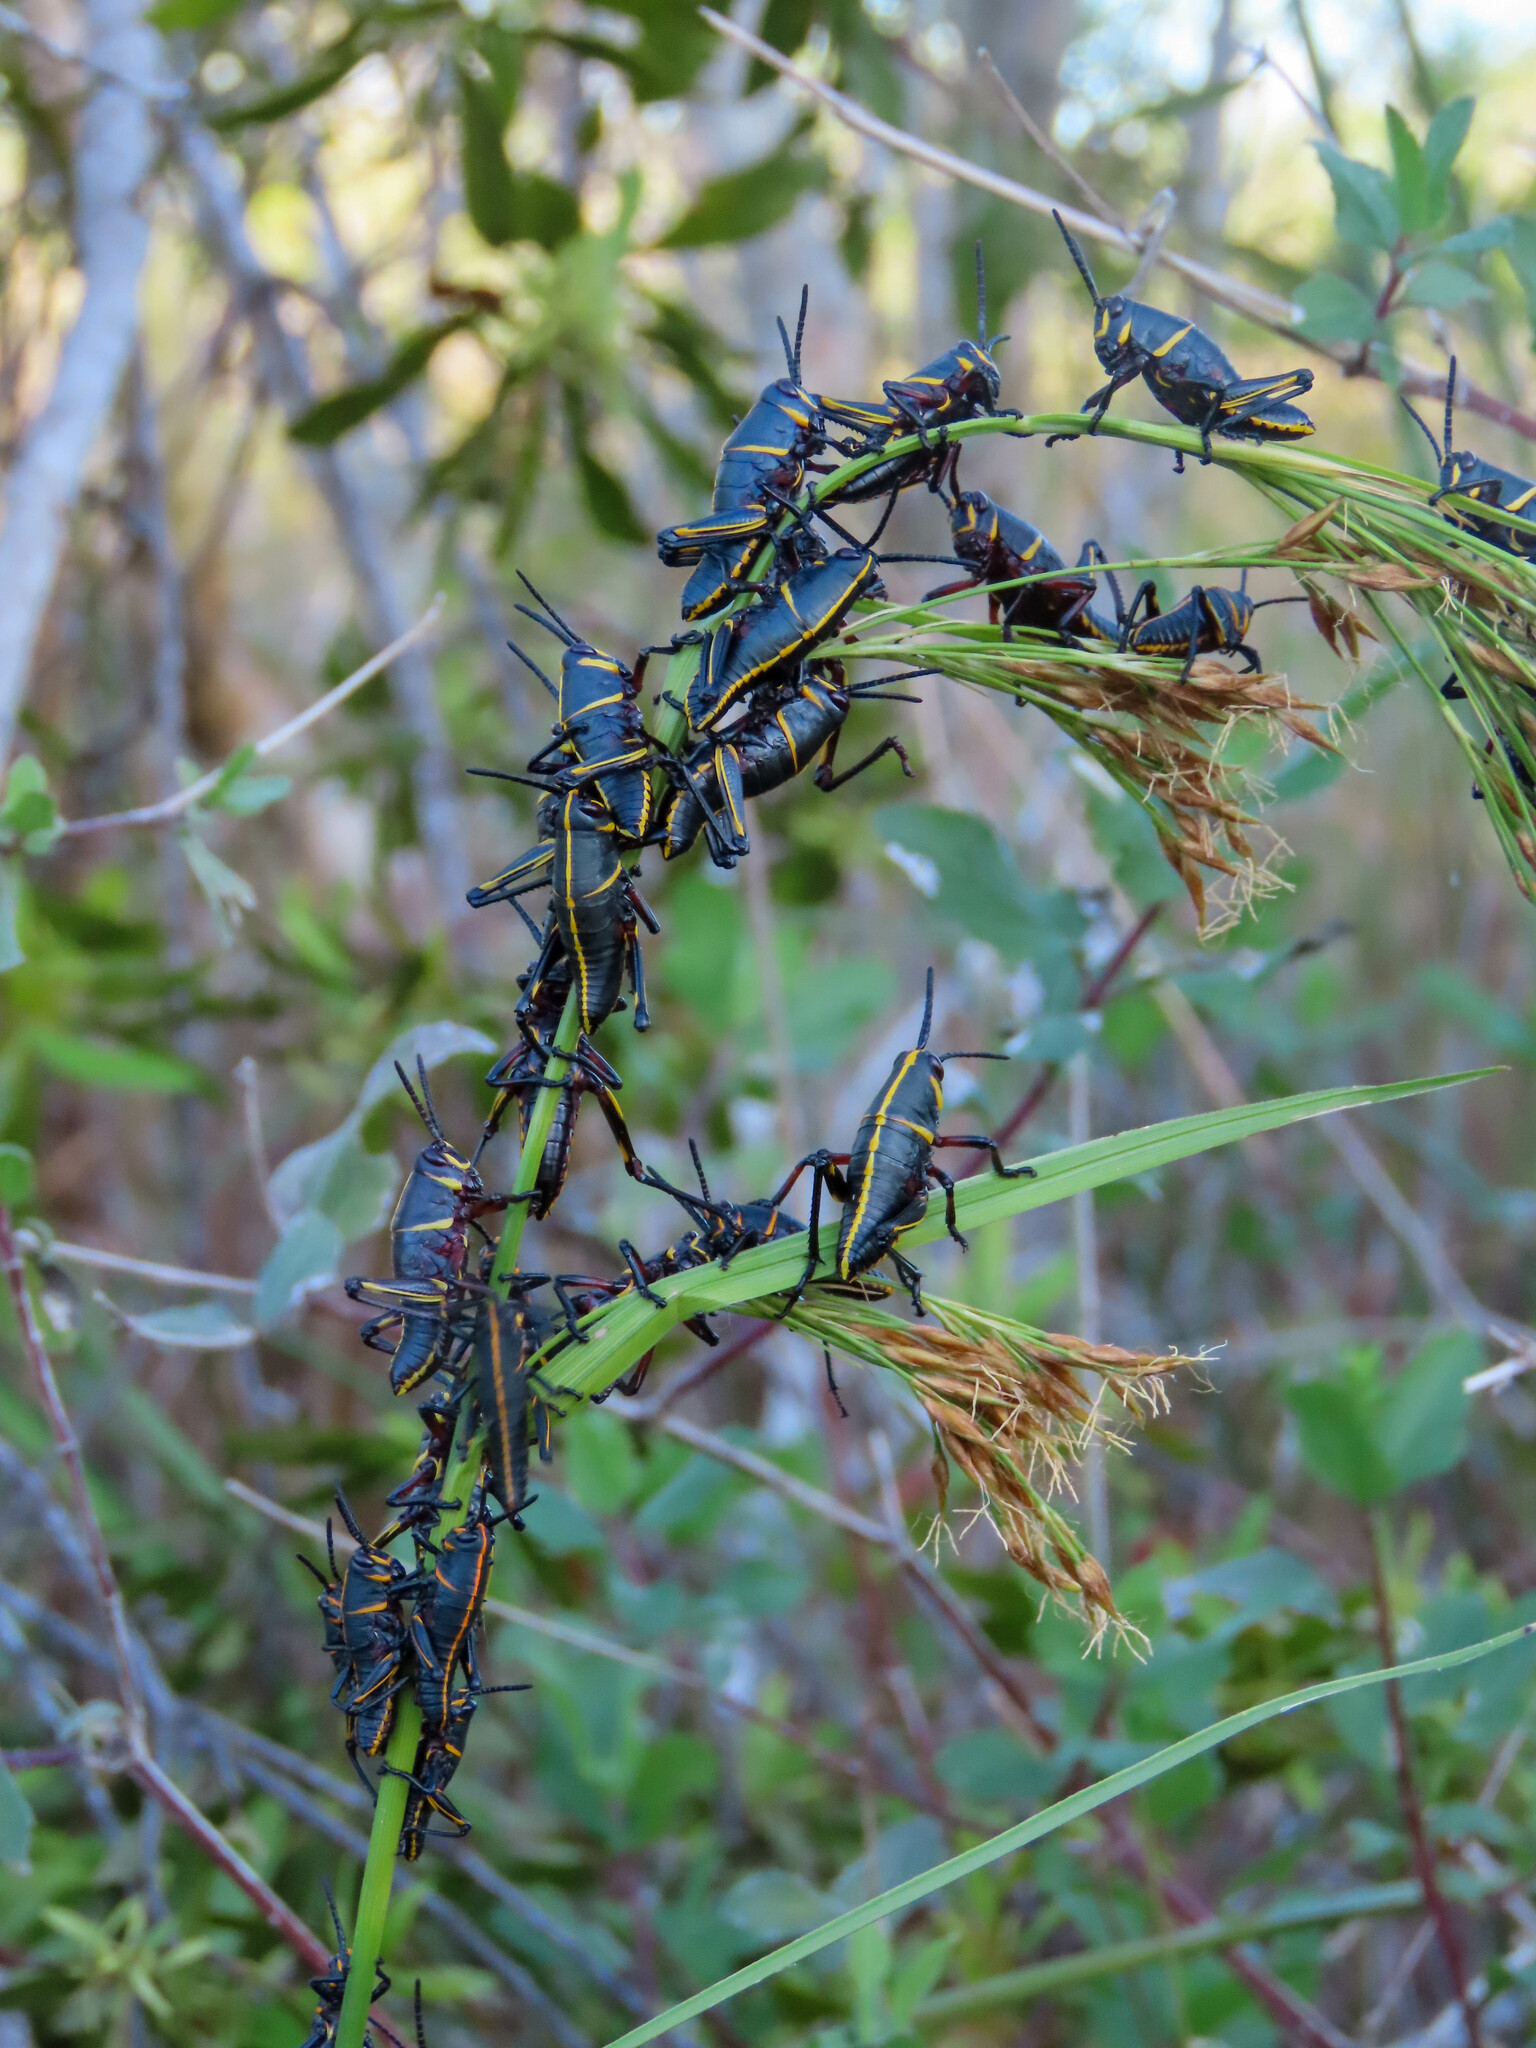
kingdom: Animalia
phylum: Arthropoda
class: Insecta
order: Orthoptera
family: Romaleidae
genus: Romalea
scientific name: Romalea microptera
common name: Eastern lubber grasshopper
